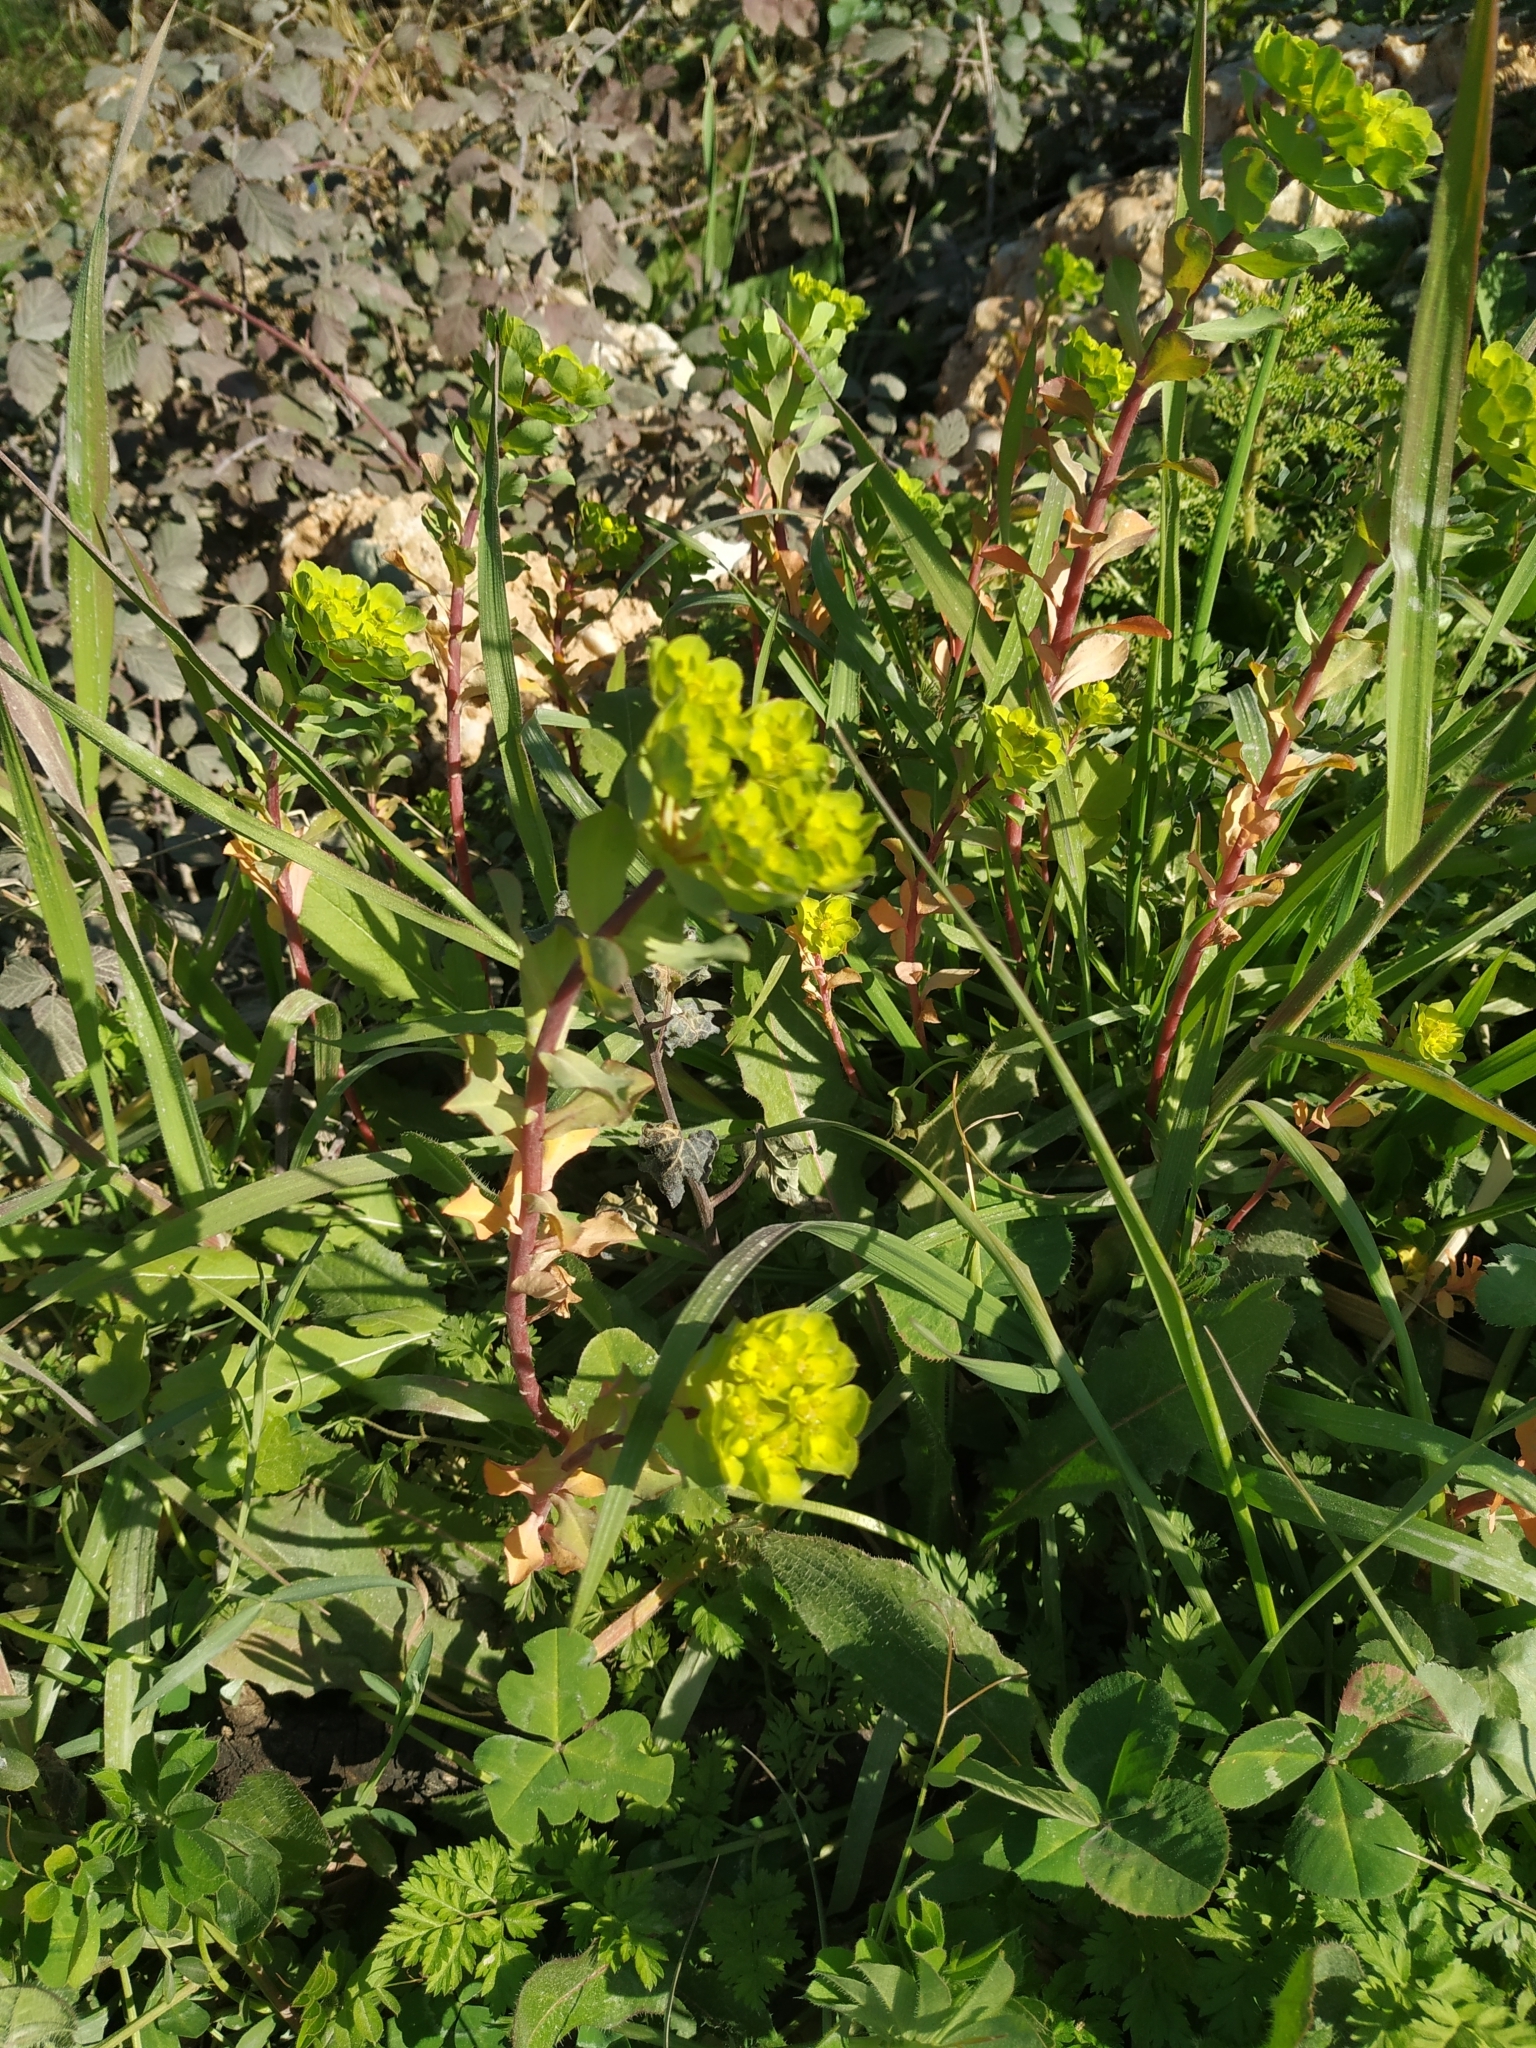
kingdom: Plantae
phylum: Tracheophyta
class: Magnoliopsida
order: Malpighiales
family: Euphorbiaceae
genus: Euphorbia
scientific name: Euphorbia helioscopia
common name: Sun spurge
